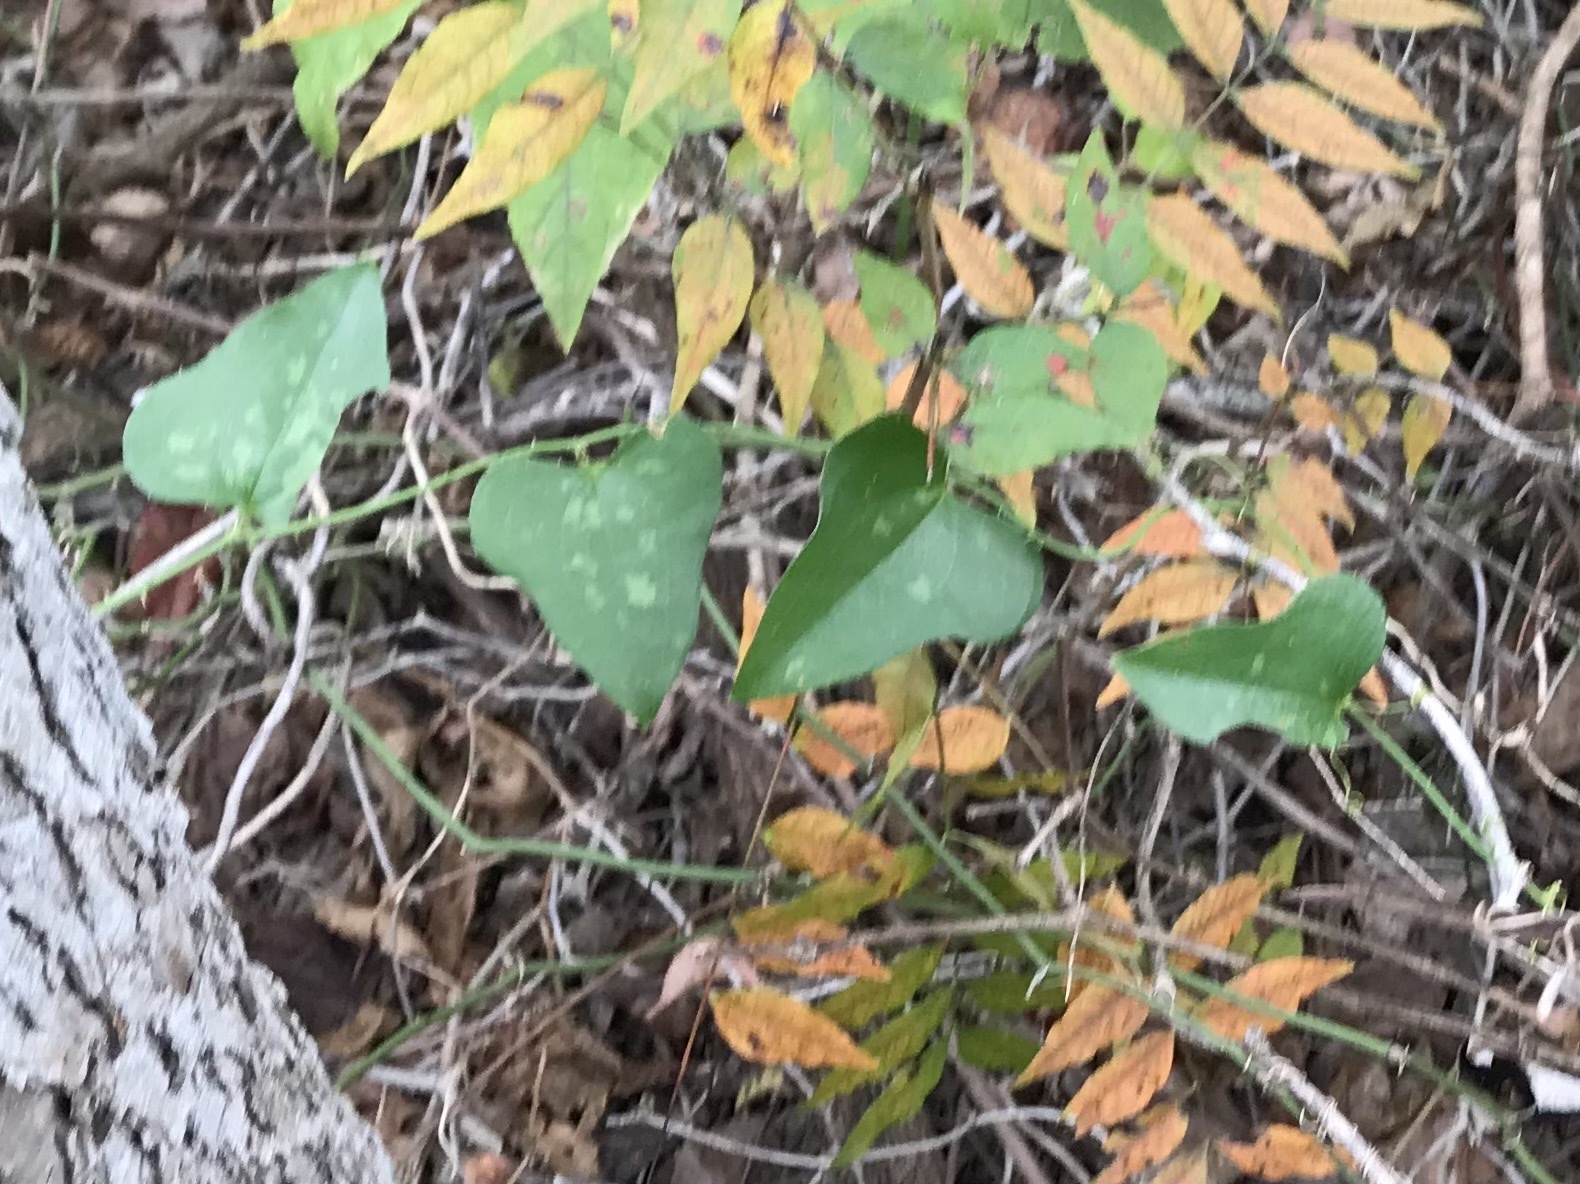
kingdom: Plantae
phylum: Tracheophyta
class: Liliopsida
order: Liliales
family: Smilacaceae
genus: Smilax
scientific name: Smilax bona-nox
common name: Catbrier
